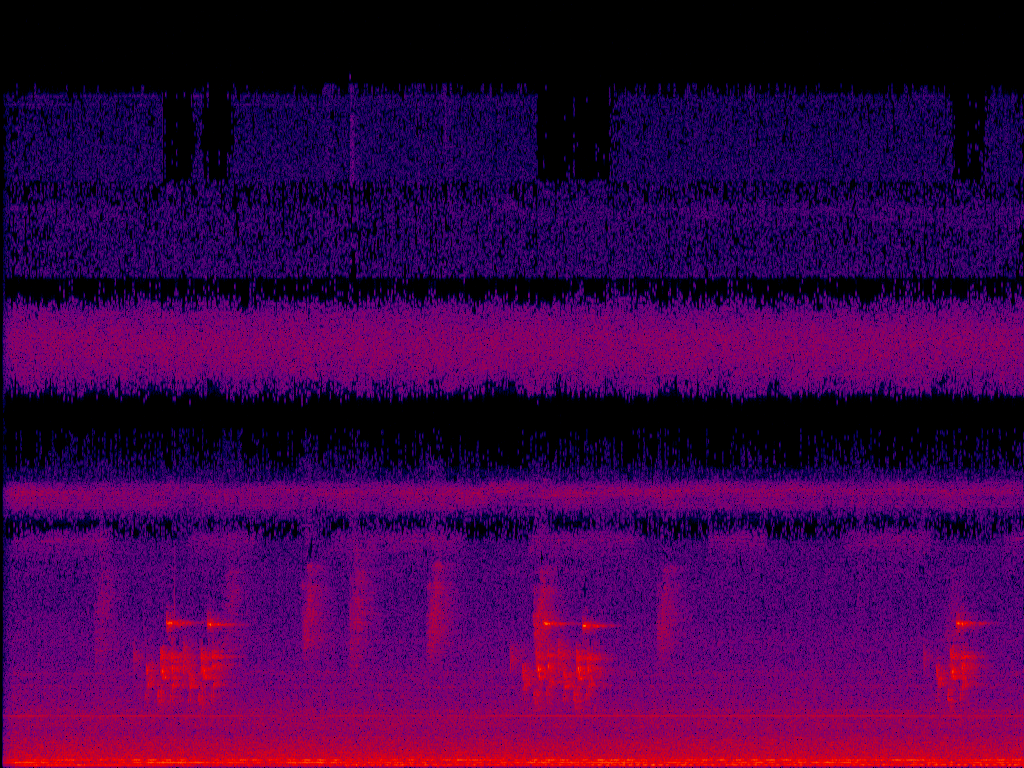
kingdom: Animalia
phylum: Chordata
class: Aves
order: Passeriformes
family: Pycnonotidae
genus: Pycnonotus
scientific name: Pycnonotus taivanus
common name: Styan's bulbul
